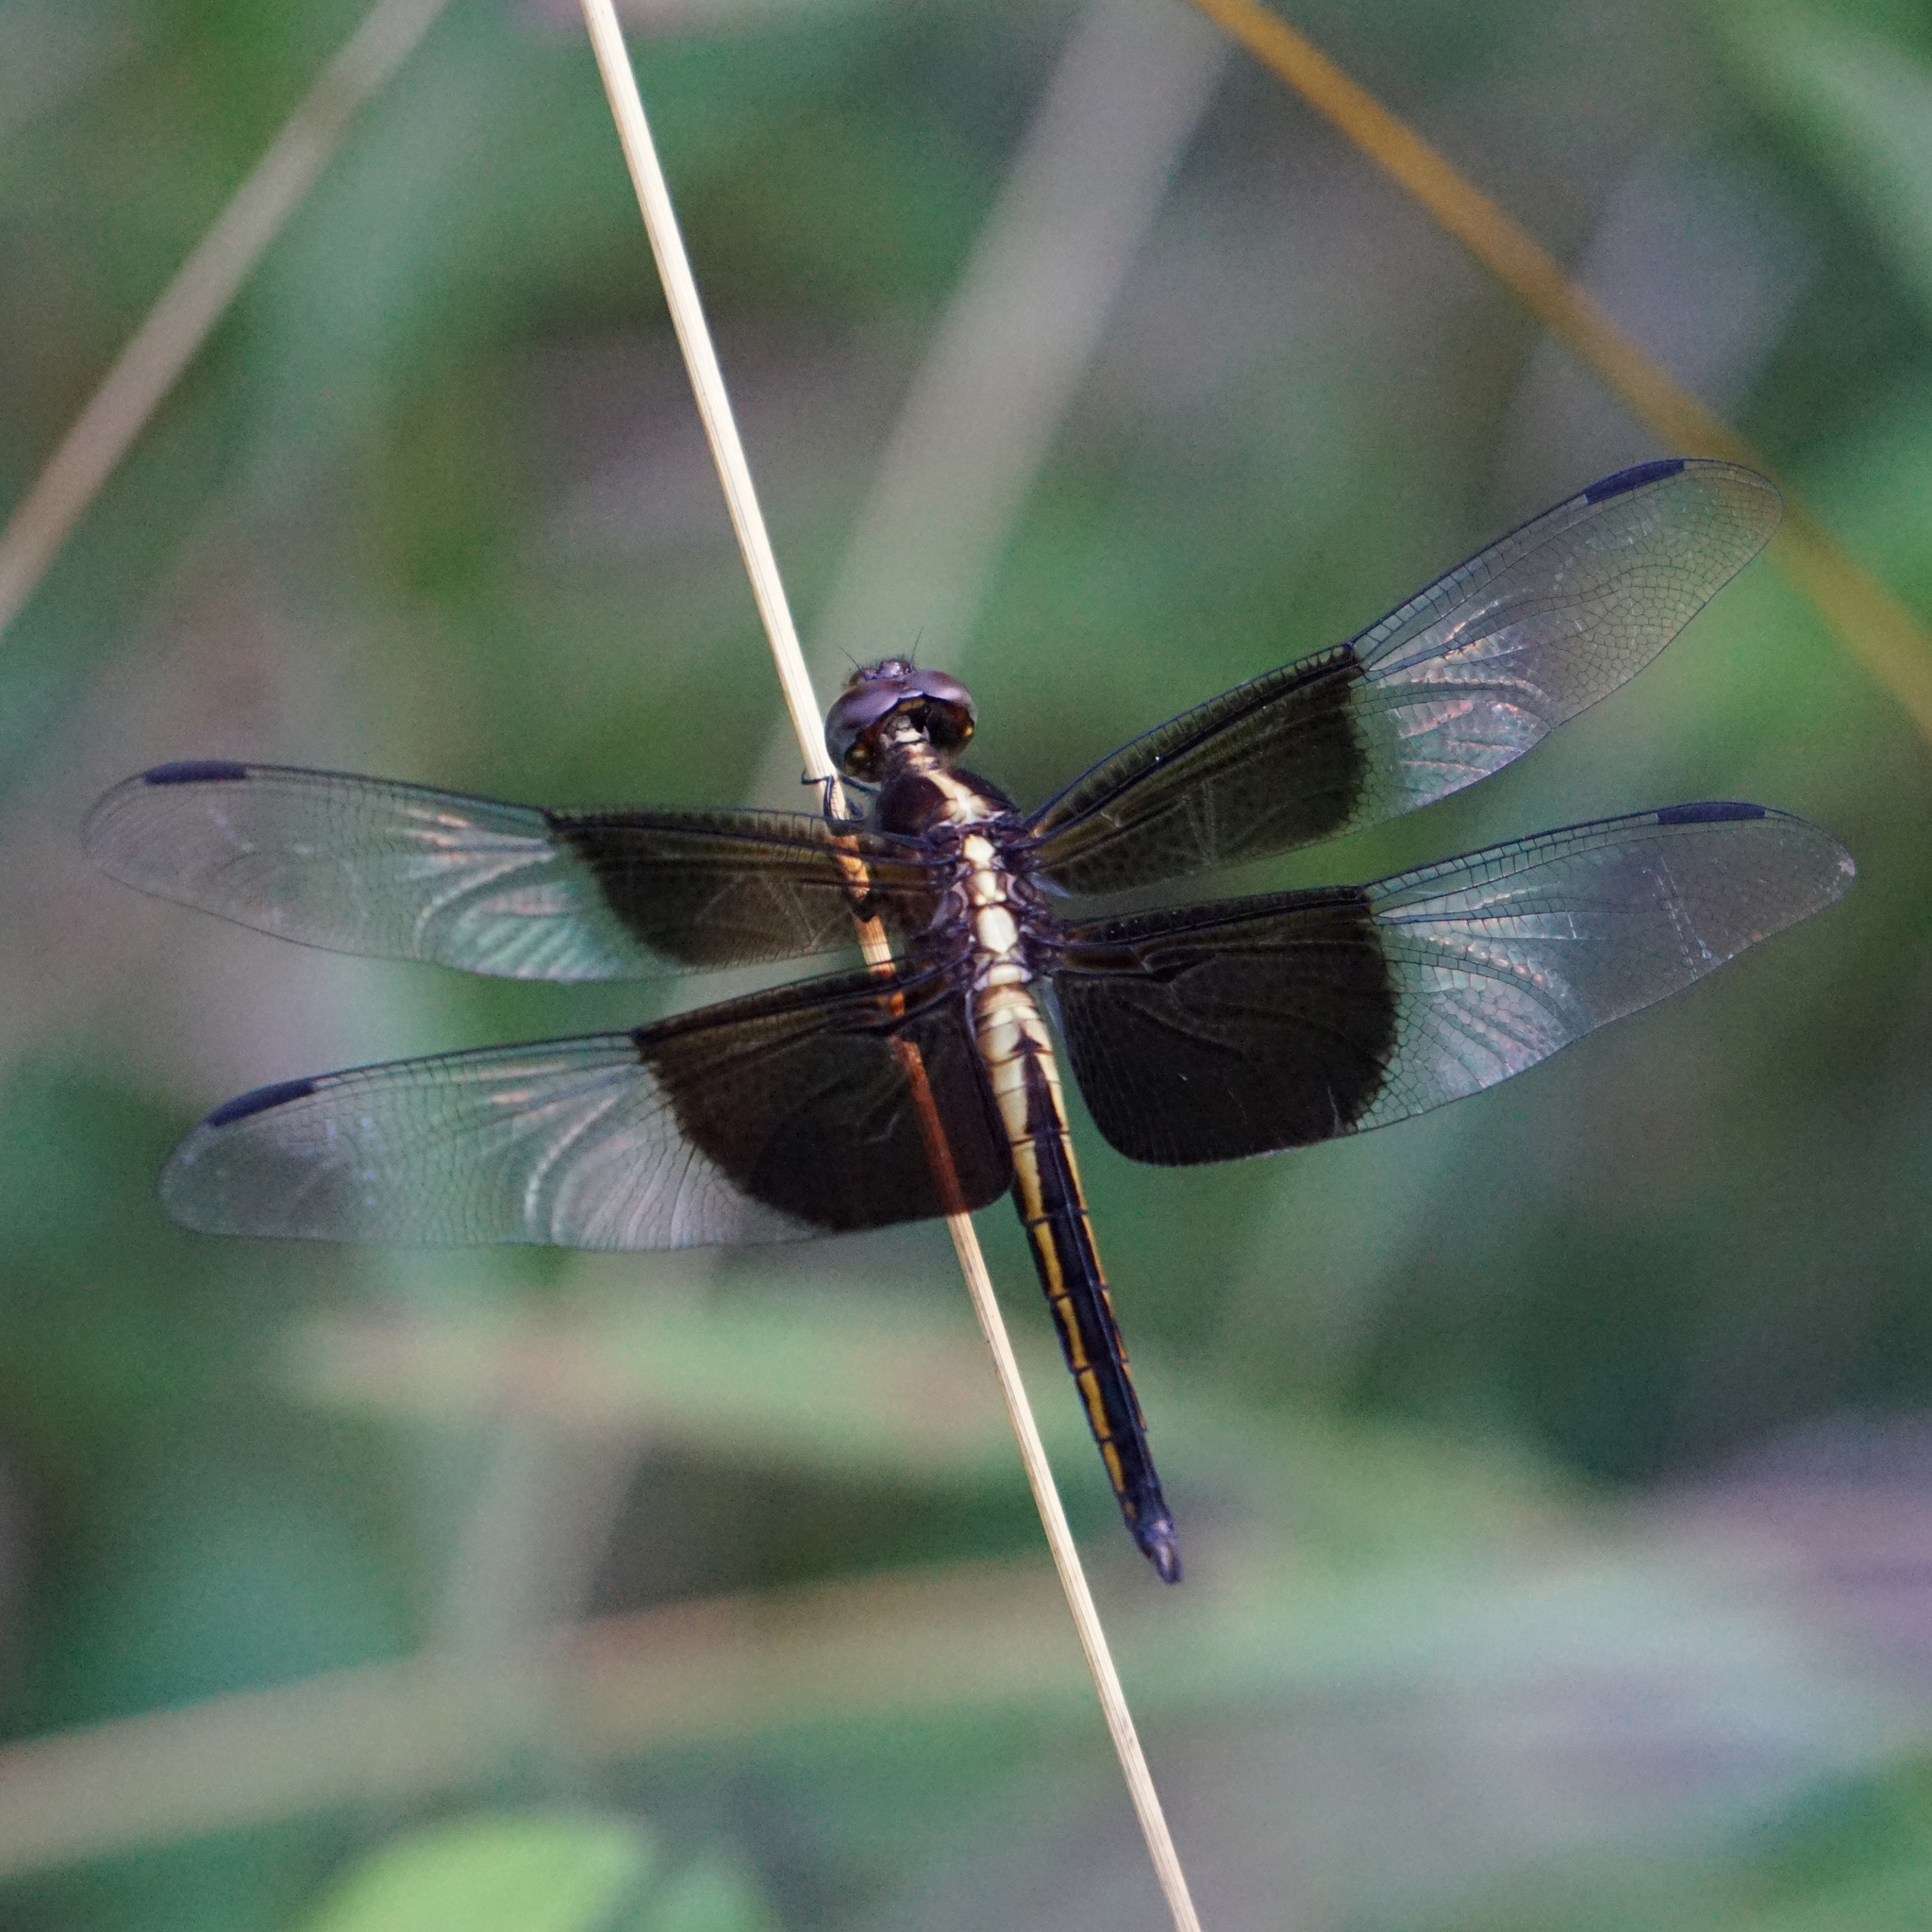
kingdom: Animalia
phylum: Arthropoda
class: Insecta
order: Odonata
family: Libellulidae
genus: Libellula
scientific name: Libellula luctuosa
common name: Widow skimmer
